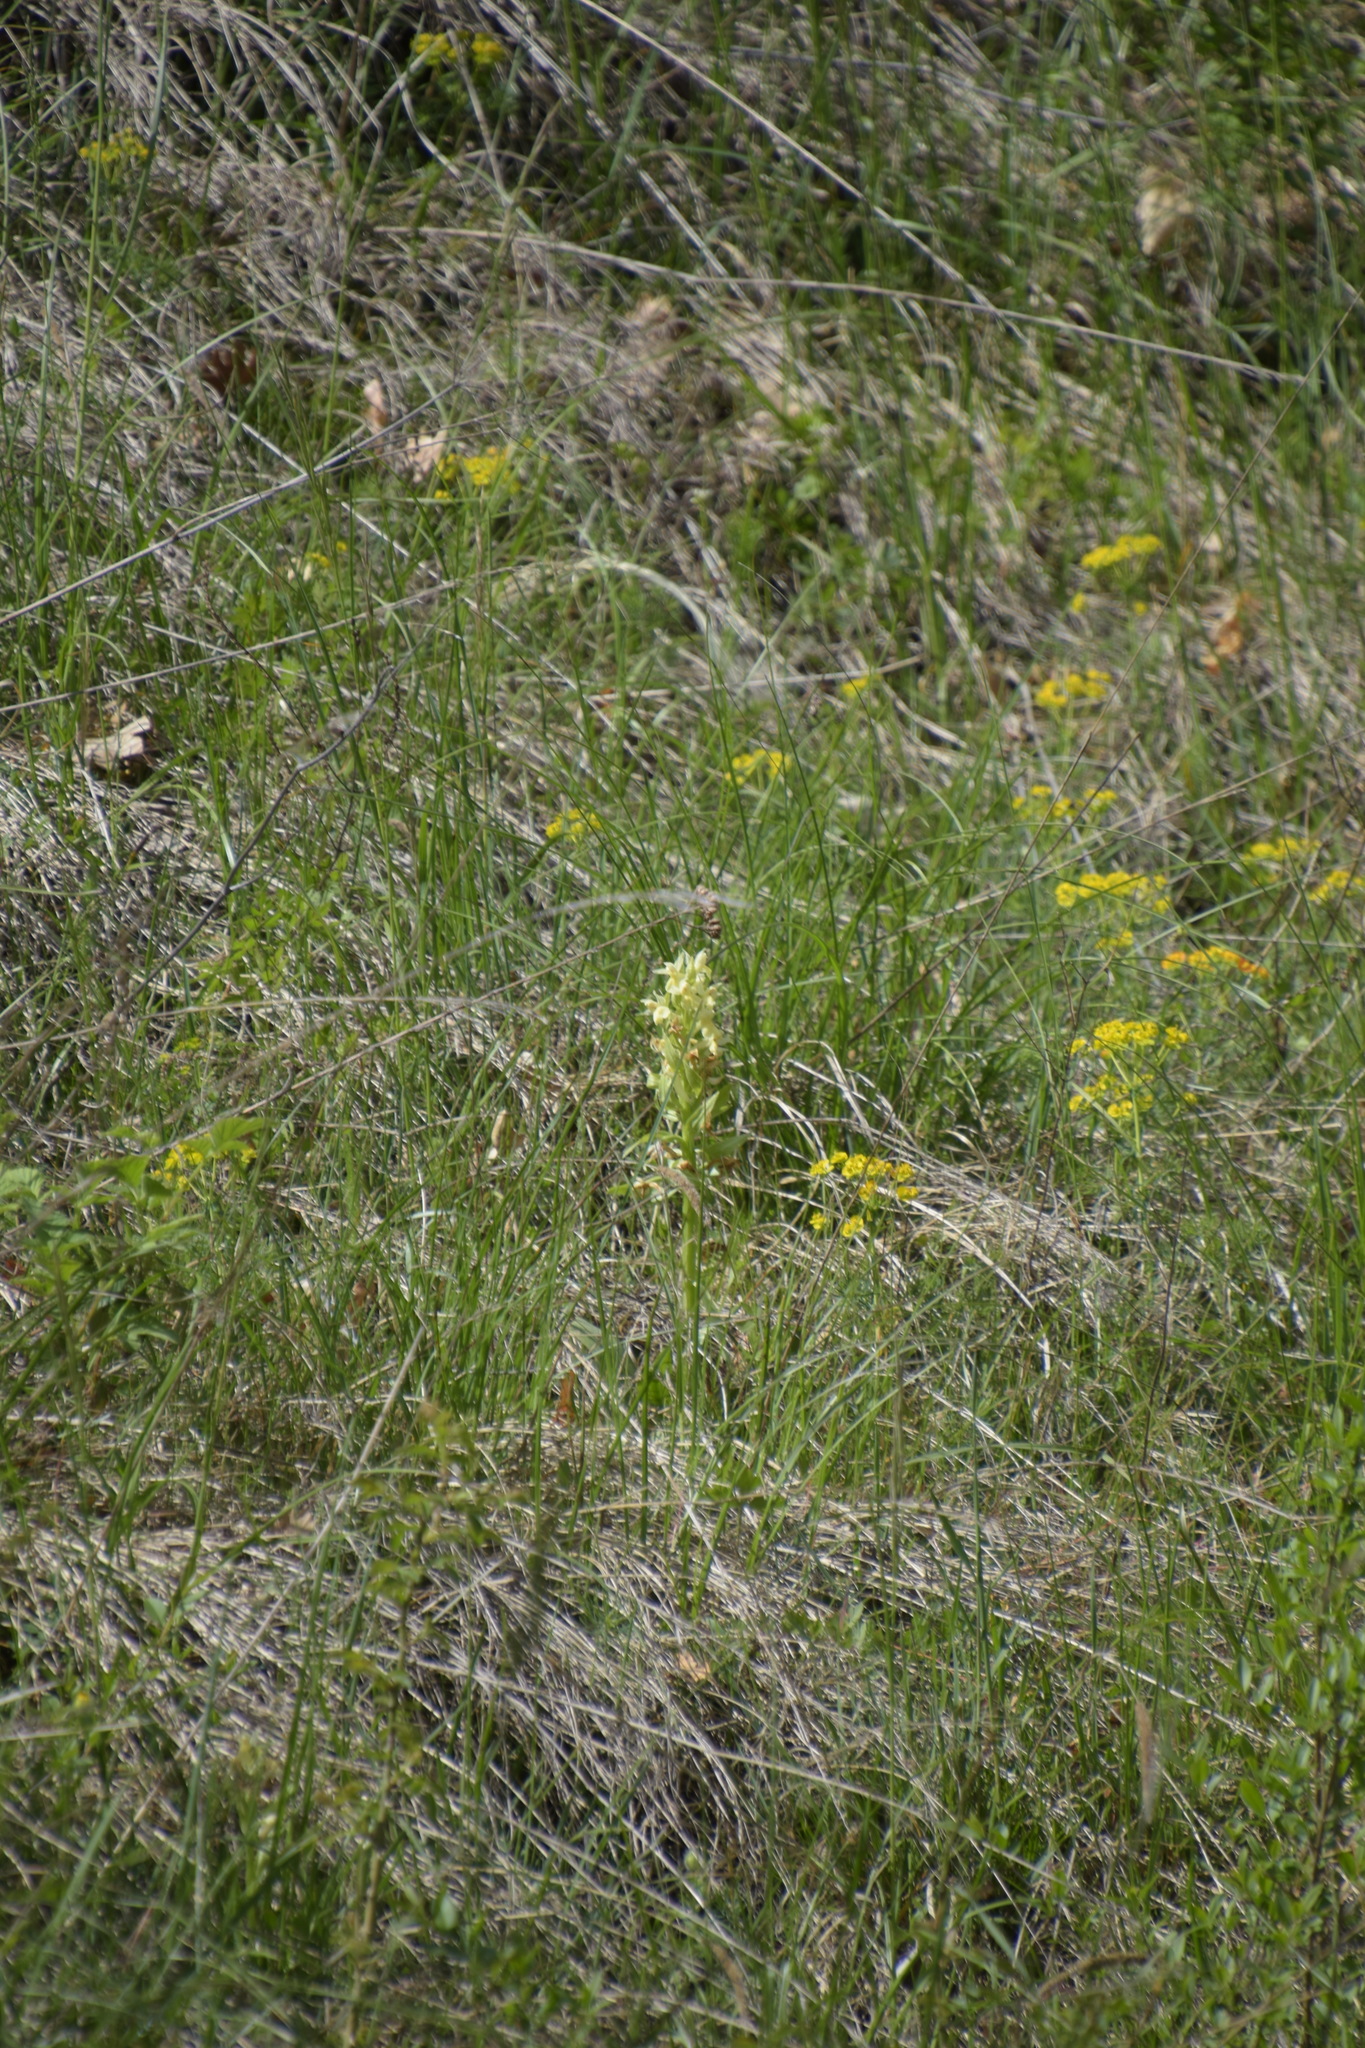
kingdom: Plantae
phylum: Tracheophyta
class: Liliopsida
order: Asparagales
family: Orchidaceae
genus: Dactylorhiza
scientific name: Dactylorhiza sambucina
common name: Elder-flowered orchid
